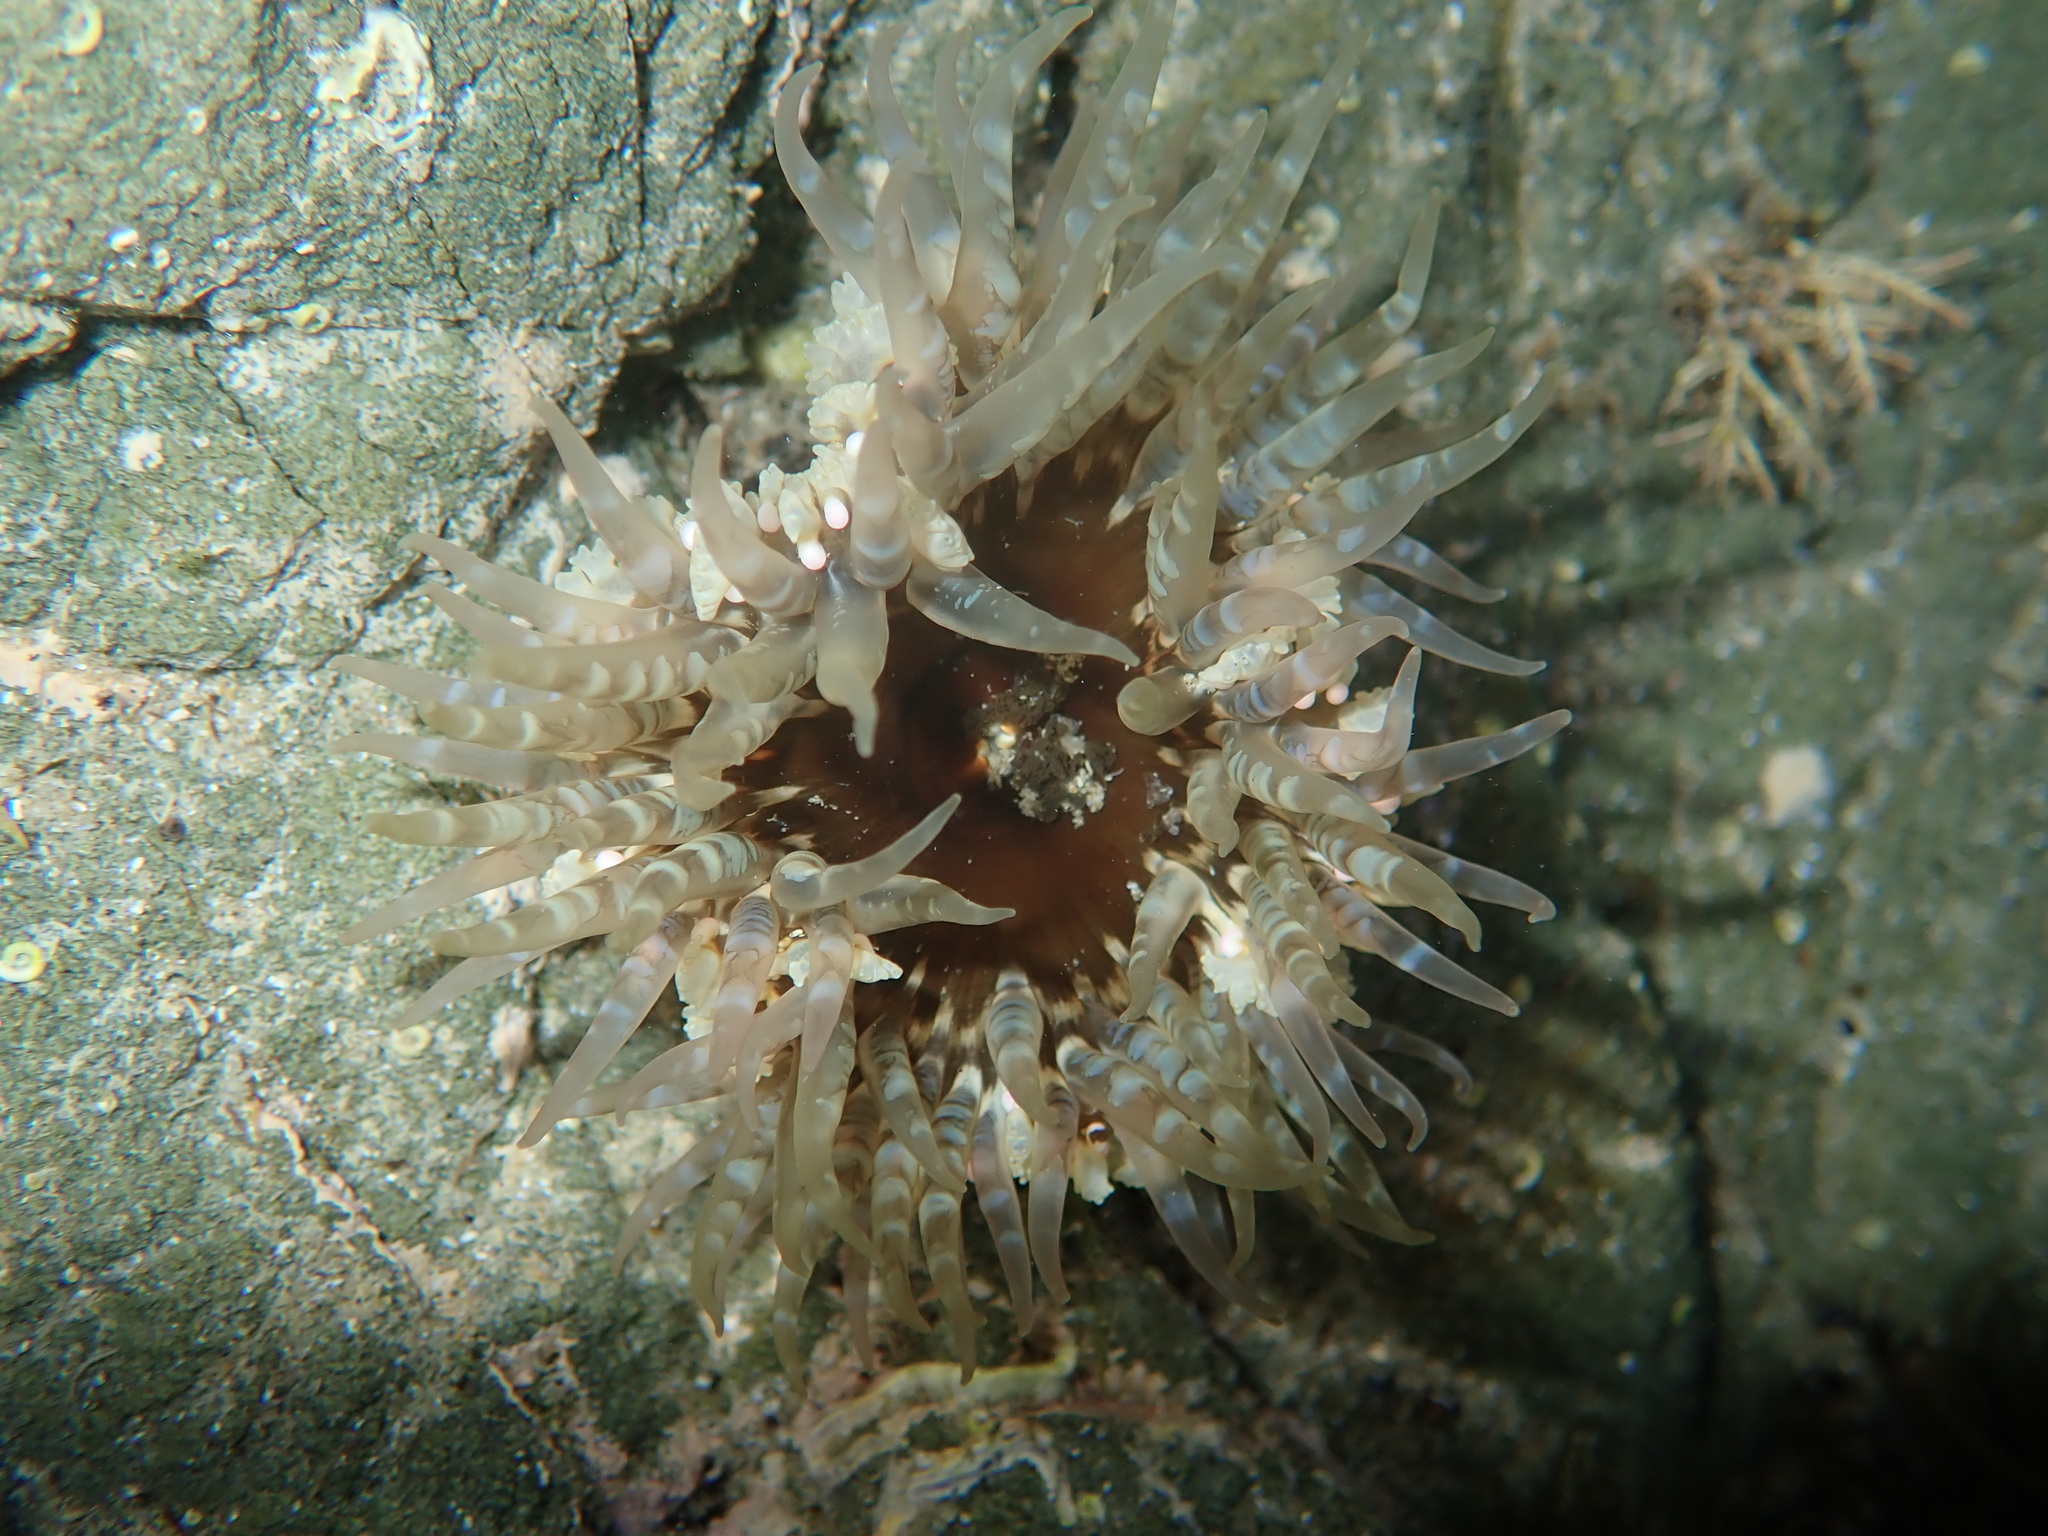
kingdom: Animalia
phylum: Cnidaria
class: Anthozoa
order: Actiniaria
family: Actiniidae
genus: Oulactis
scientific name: Oulactis muscosa
